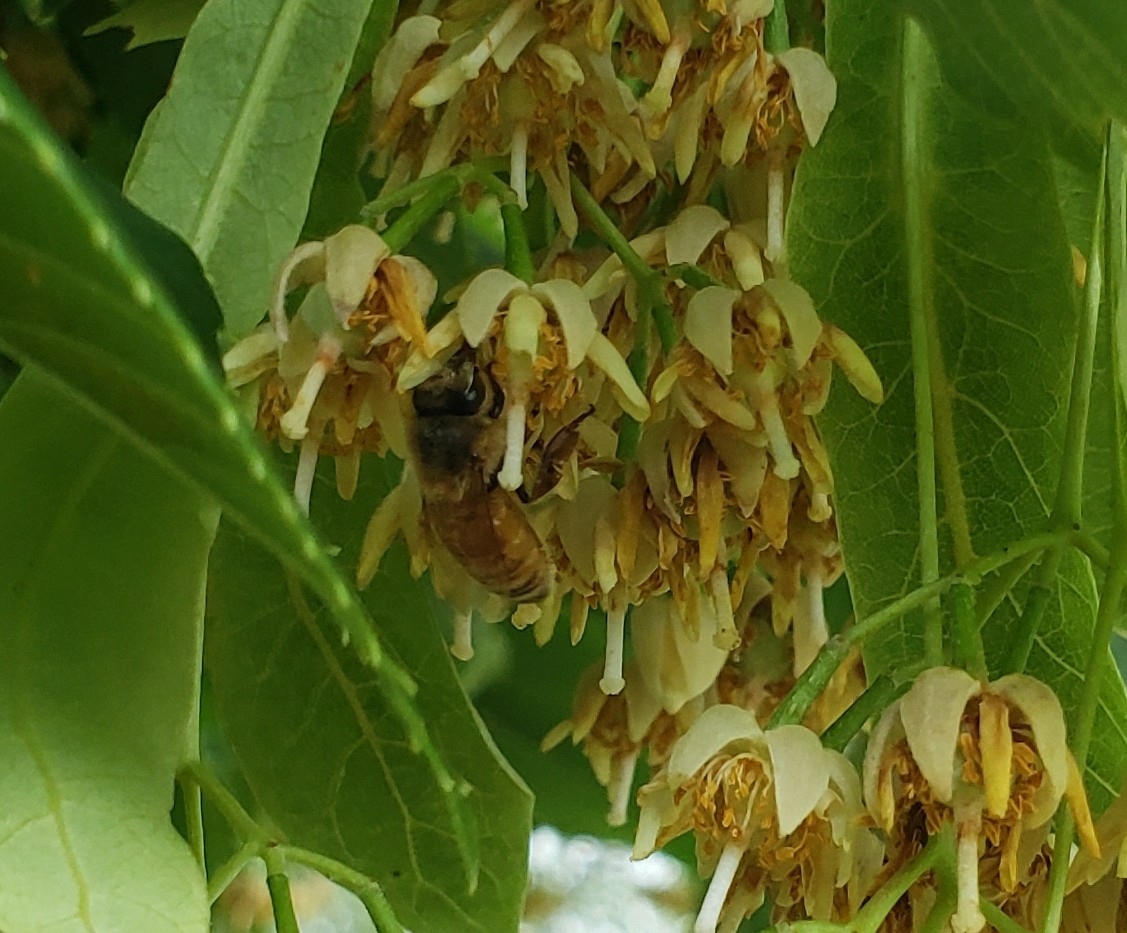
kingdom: Animalia
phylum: Arthropoda
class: Insecta
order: Hymenoptera
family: Apidae
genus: Apis
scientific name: Apis mellifera
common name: Honey bee
